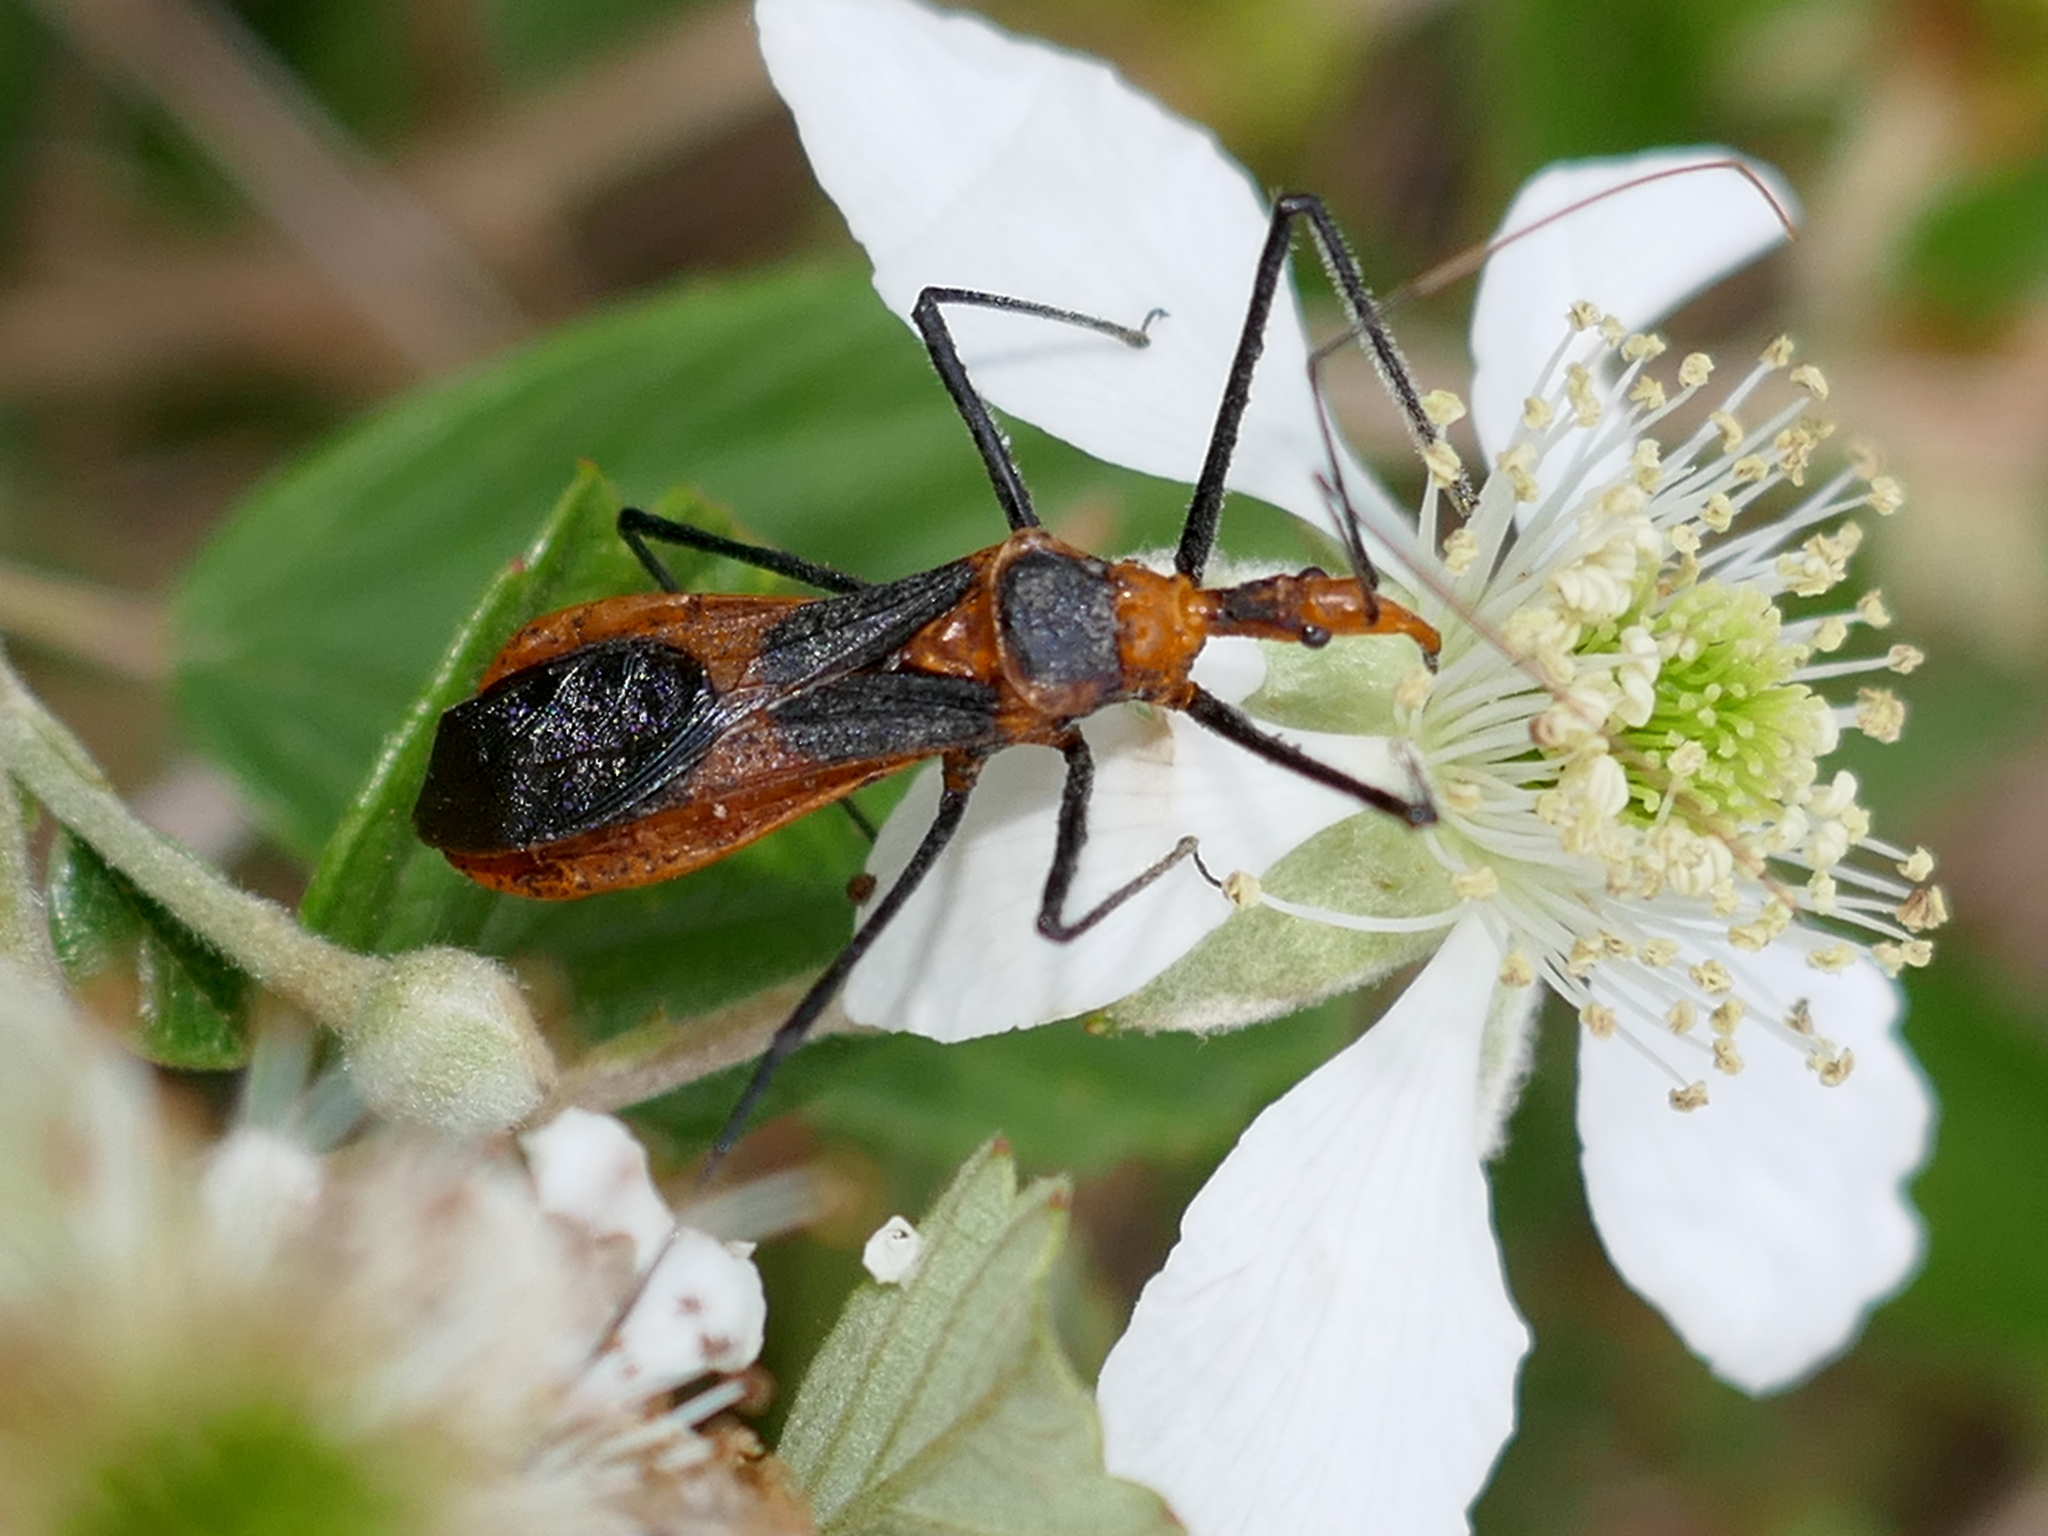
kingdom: Animalia
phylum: Arthropoda
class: Insecta
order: Hemiptera
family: Reduviidae
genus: Zelus
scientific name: Zelus longipes
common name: Milkweed assassin bug
